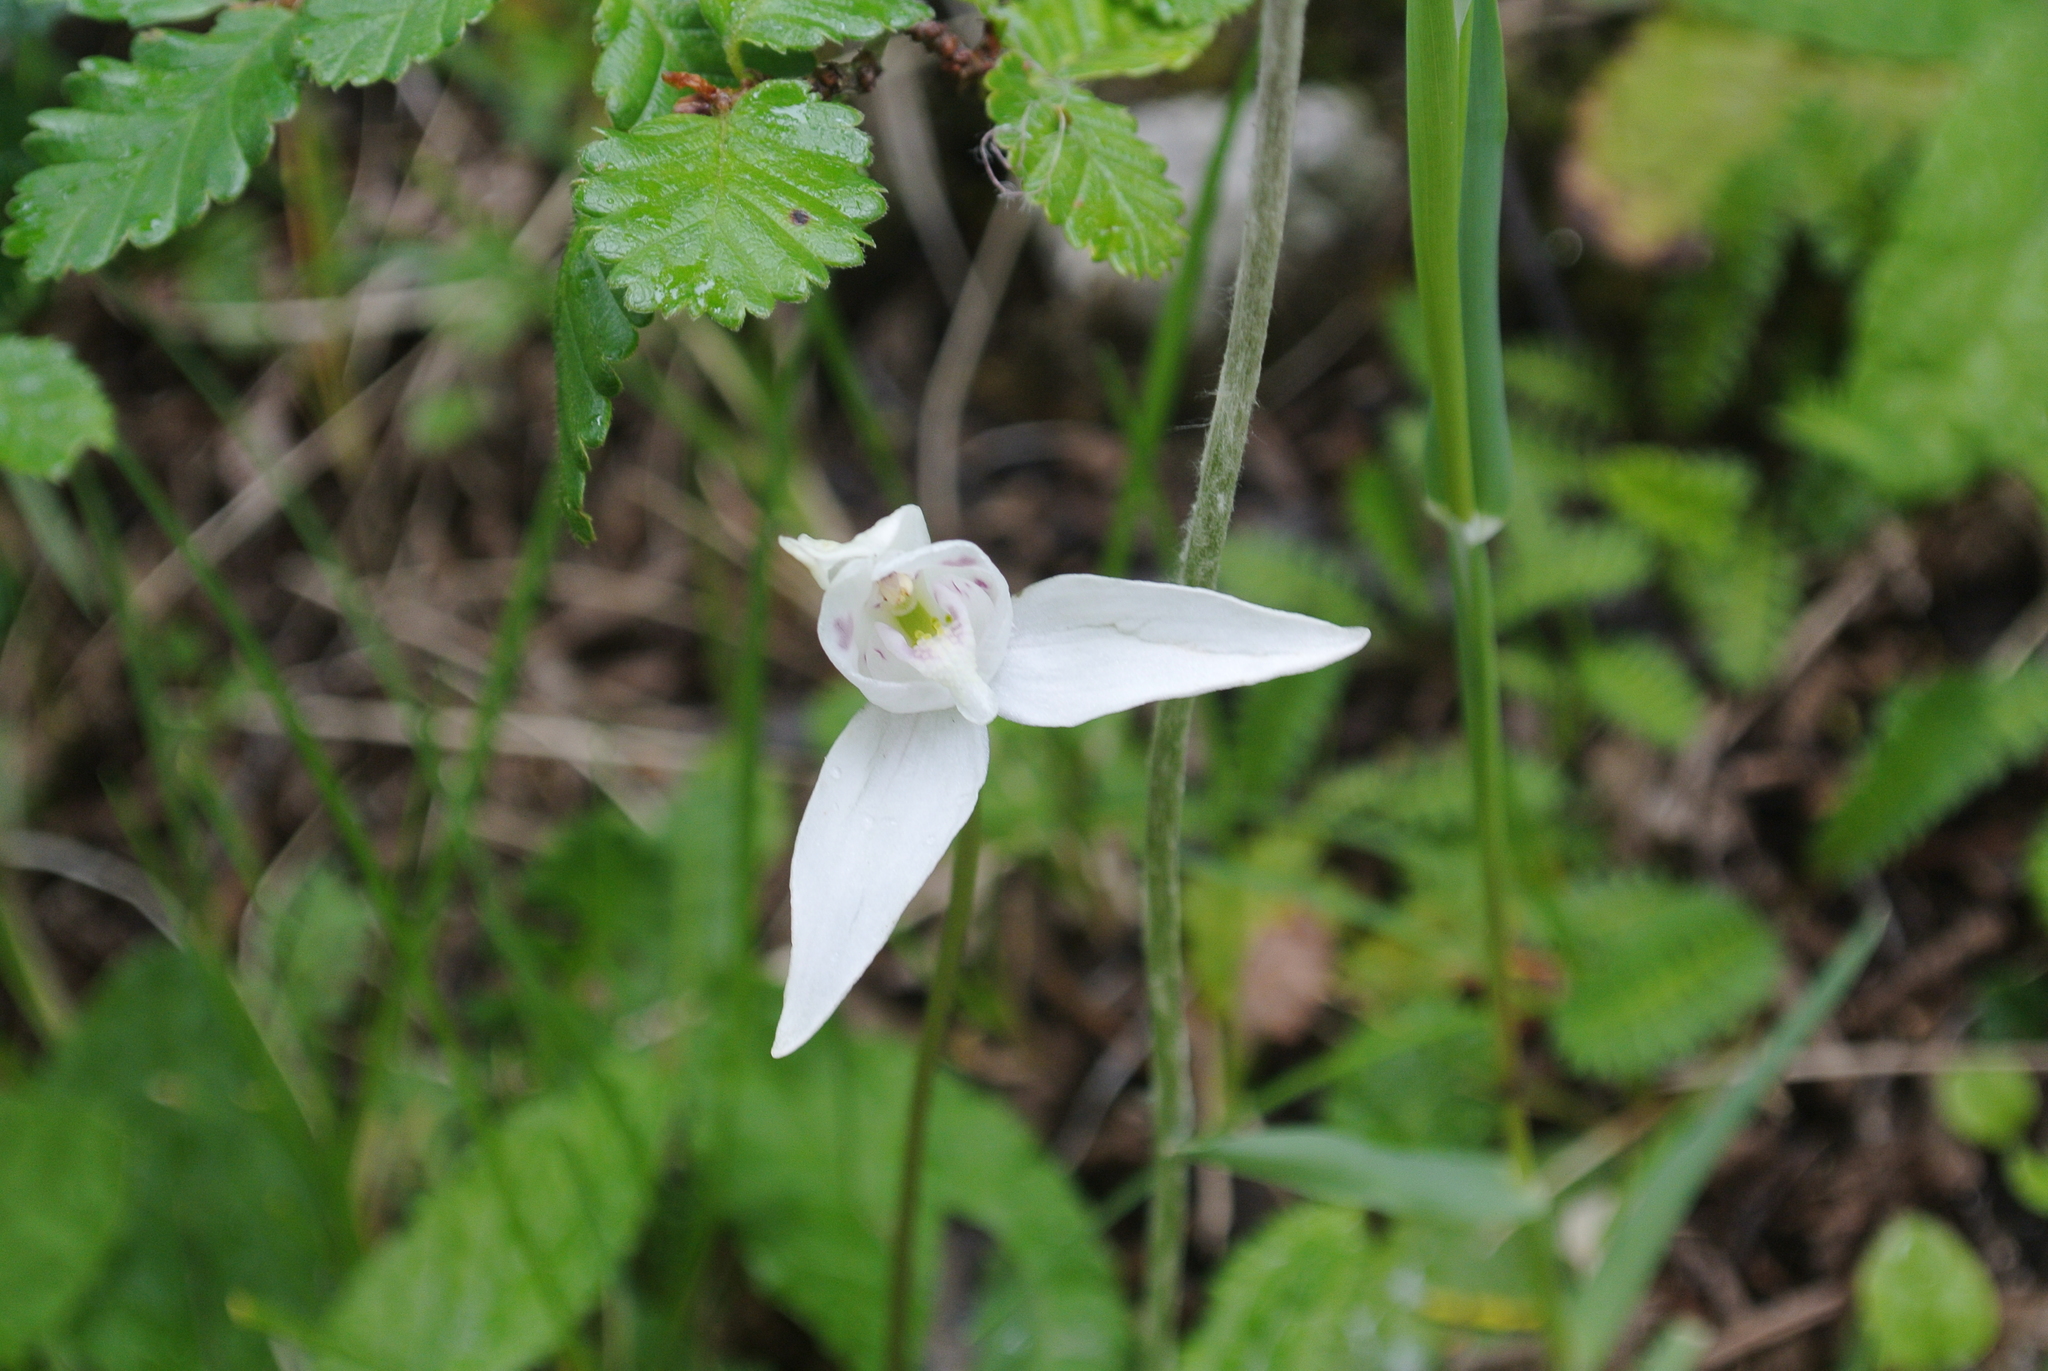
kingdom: Plantae
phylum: Tracheophyta
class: Liliopsida
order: Asparagales
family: Orchidaceae
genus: Codonorchis
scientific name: Codonorchis lessonii
